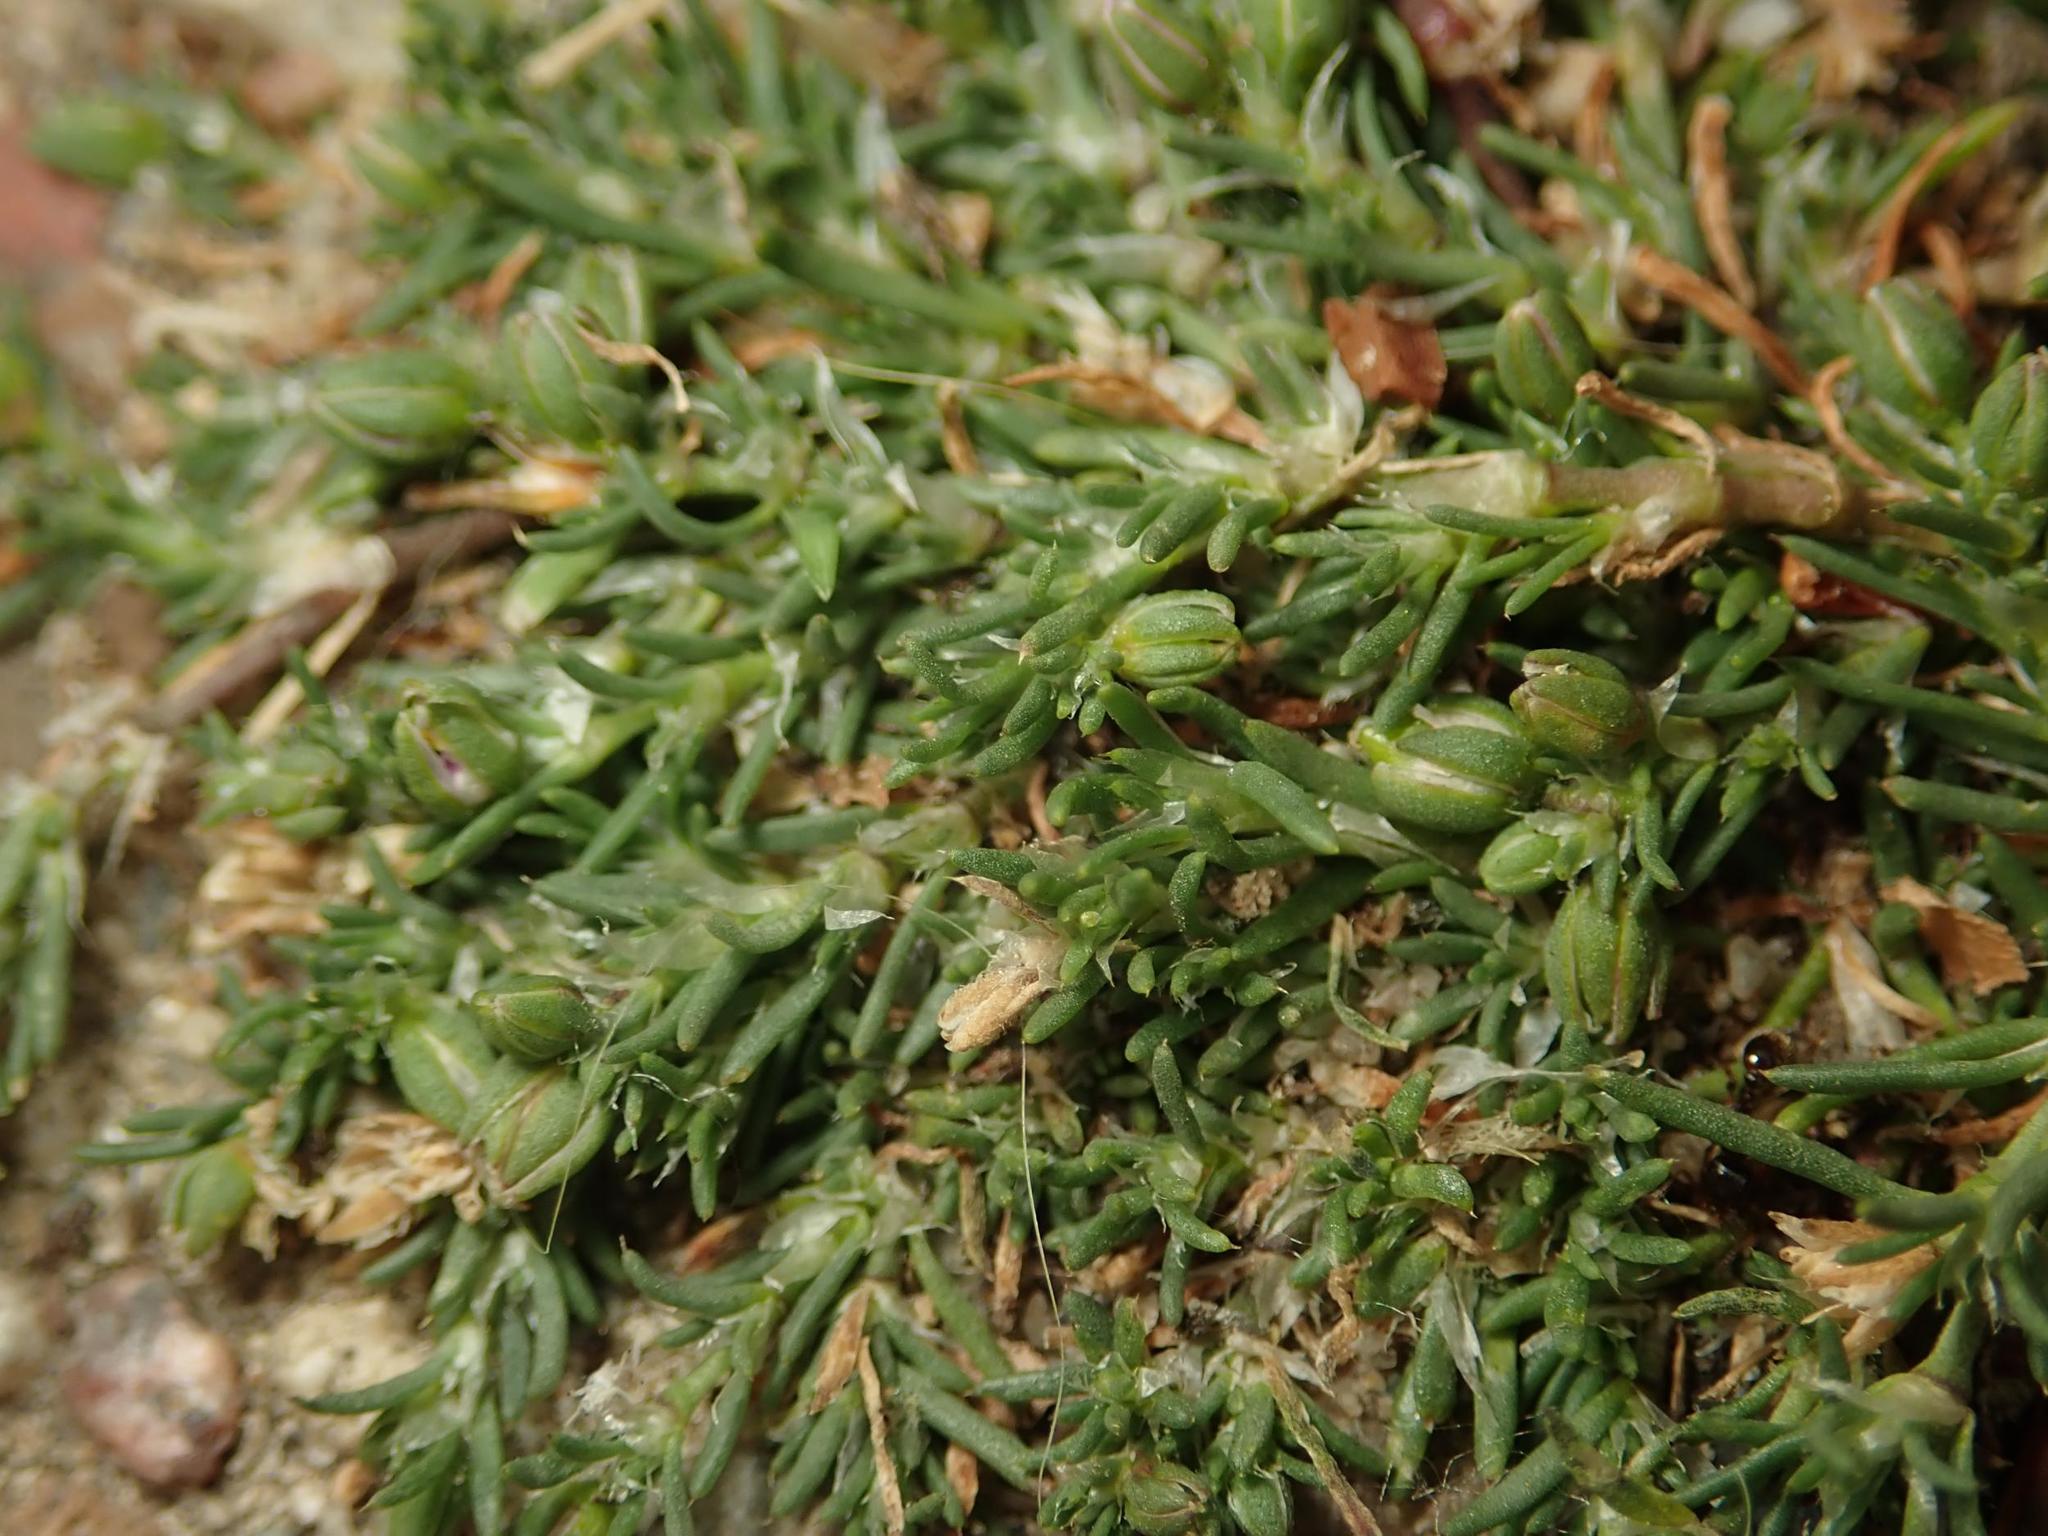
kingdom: Plantae
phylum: Tracheophyta
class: Magnoliopsida
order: Caryophyllales
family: Caryophyllaceae
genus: Spergularia
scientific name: Spergularia rubra
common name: Red sand-spurrey
